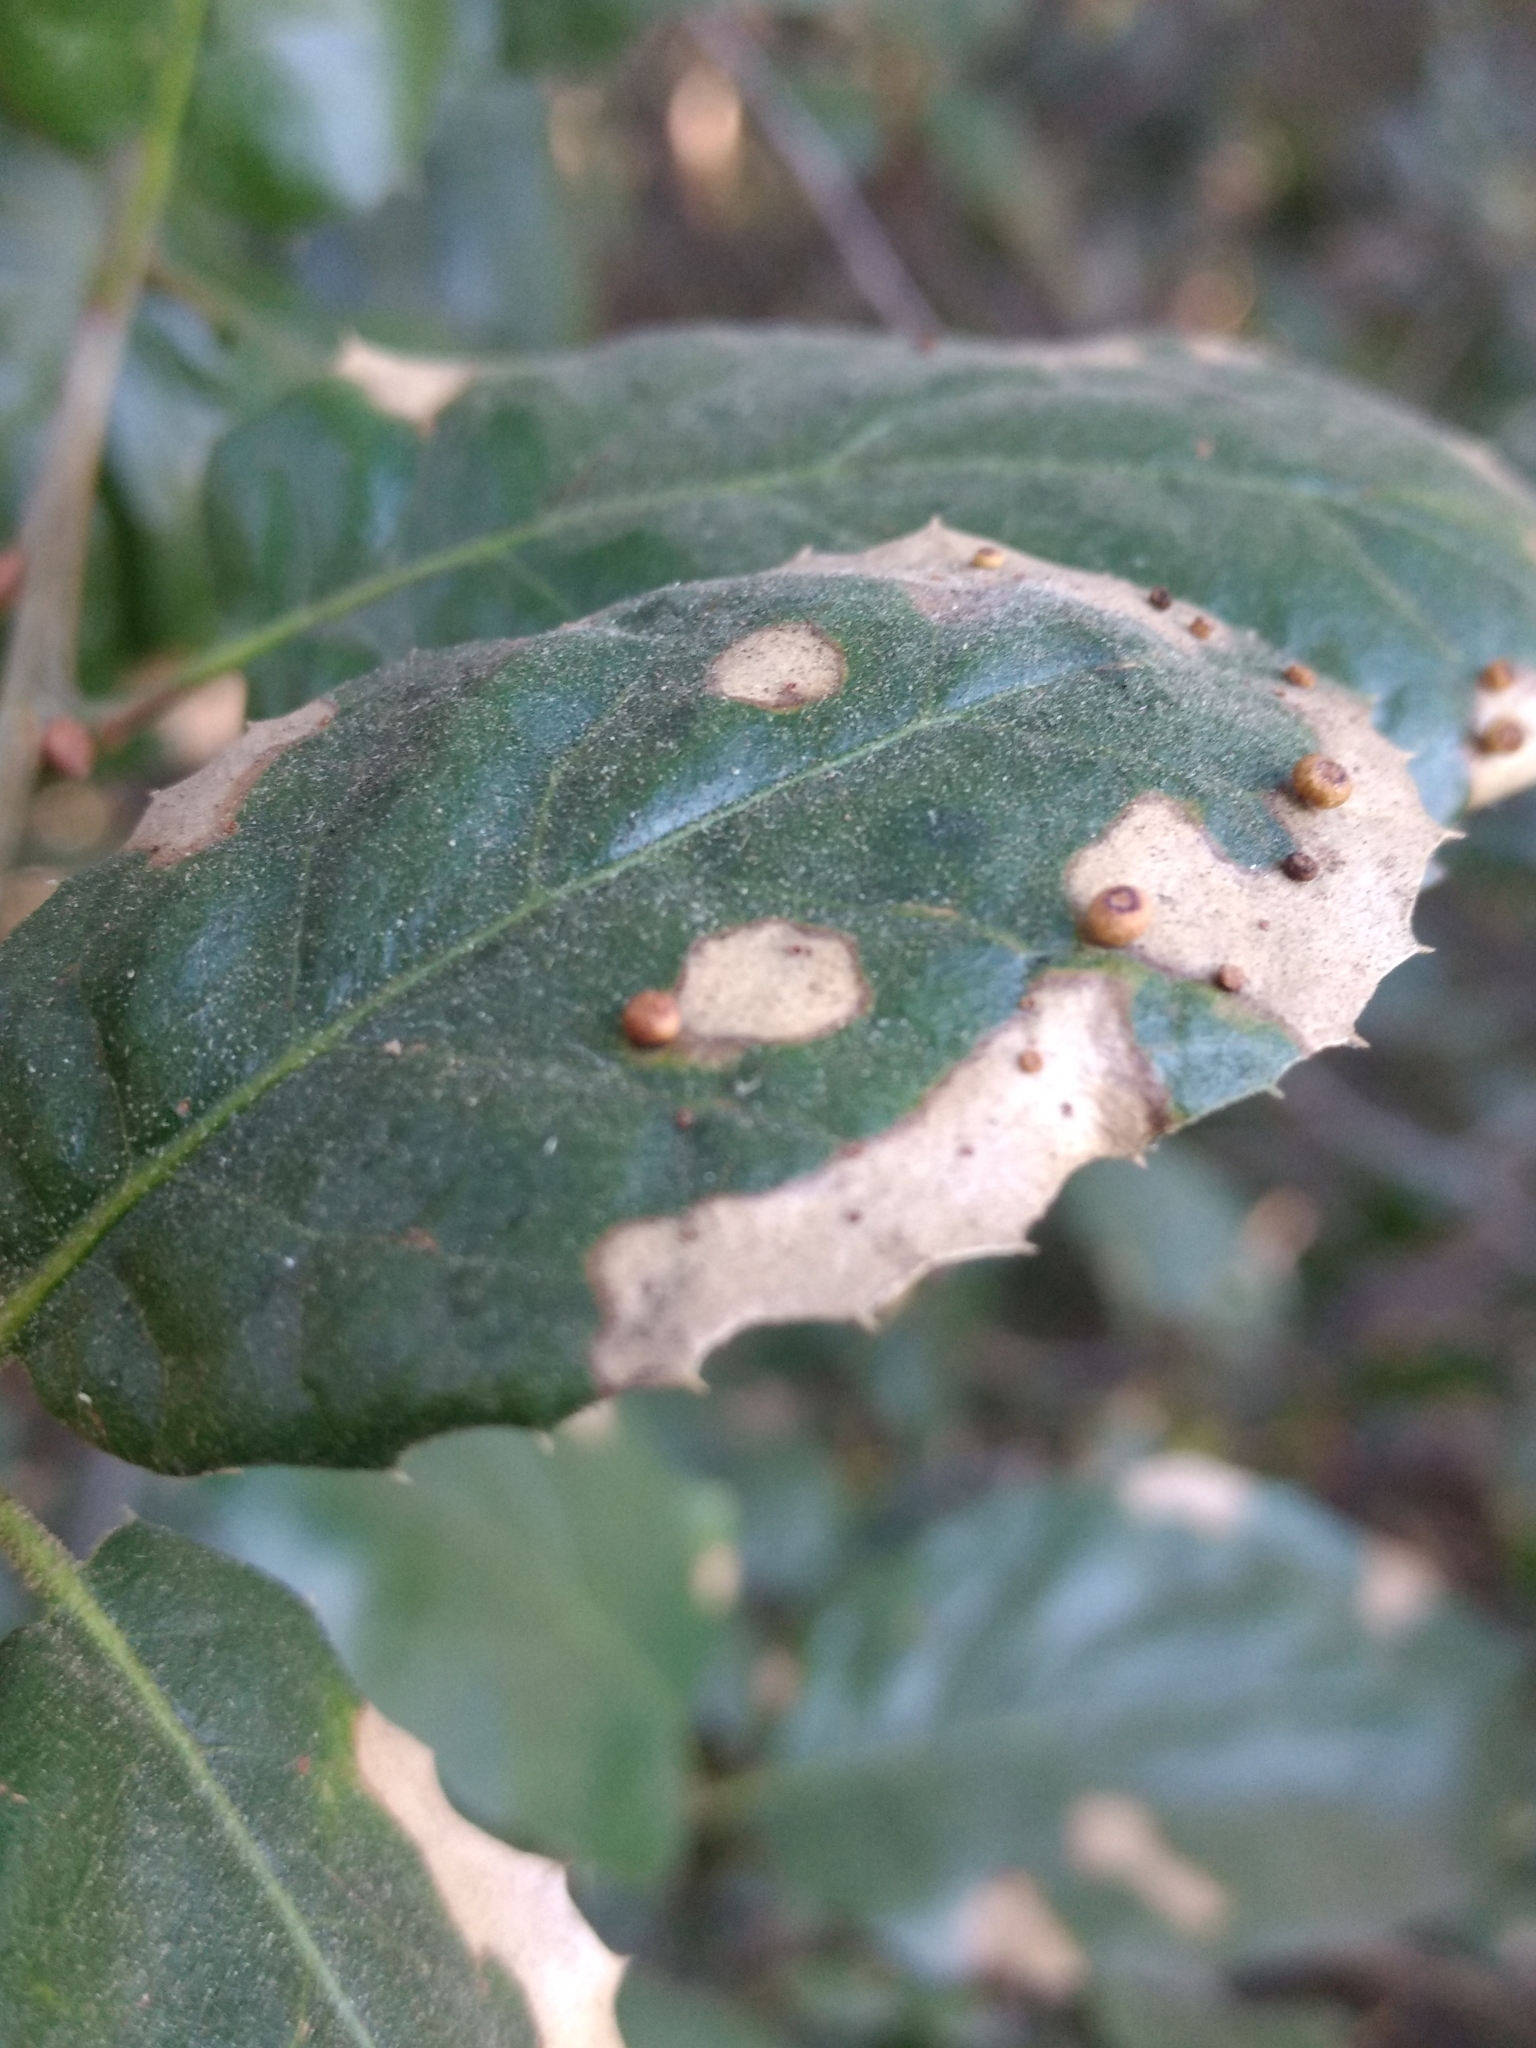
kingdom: Animalia
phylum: Arthropoda
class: Insecta
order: Hymenoptera
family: Cynipidae
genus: Dryocosmus
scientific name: Dryocosmus
